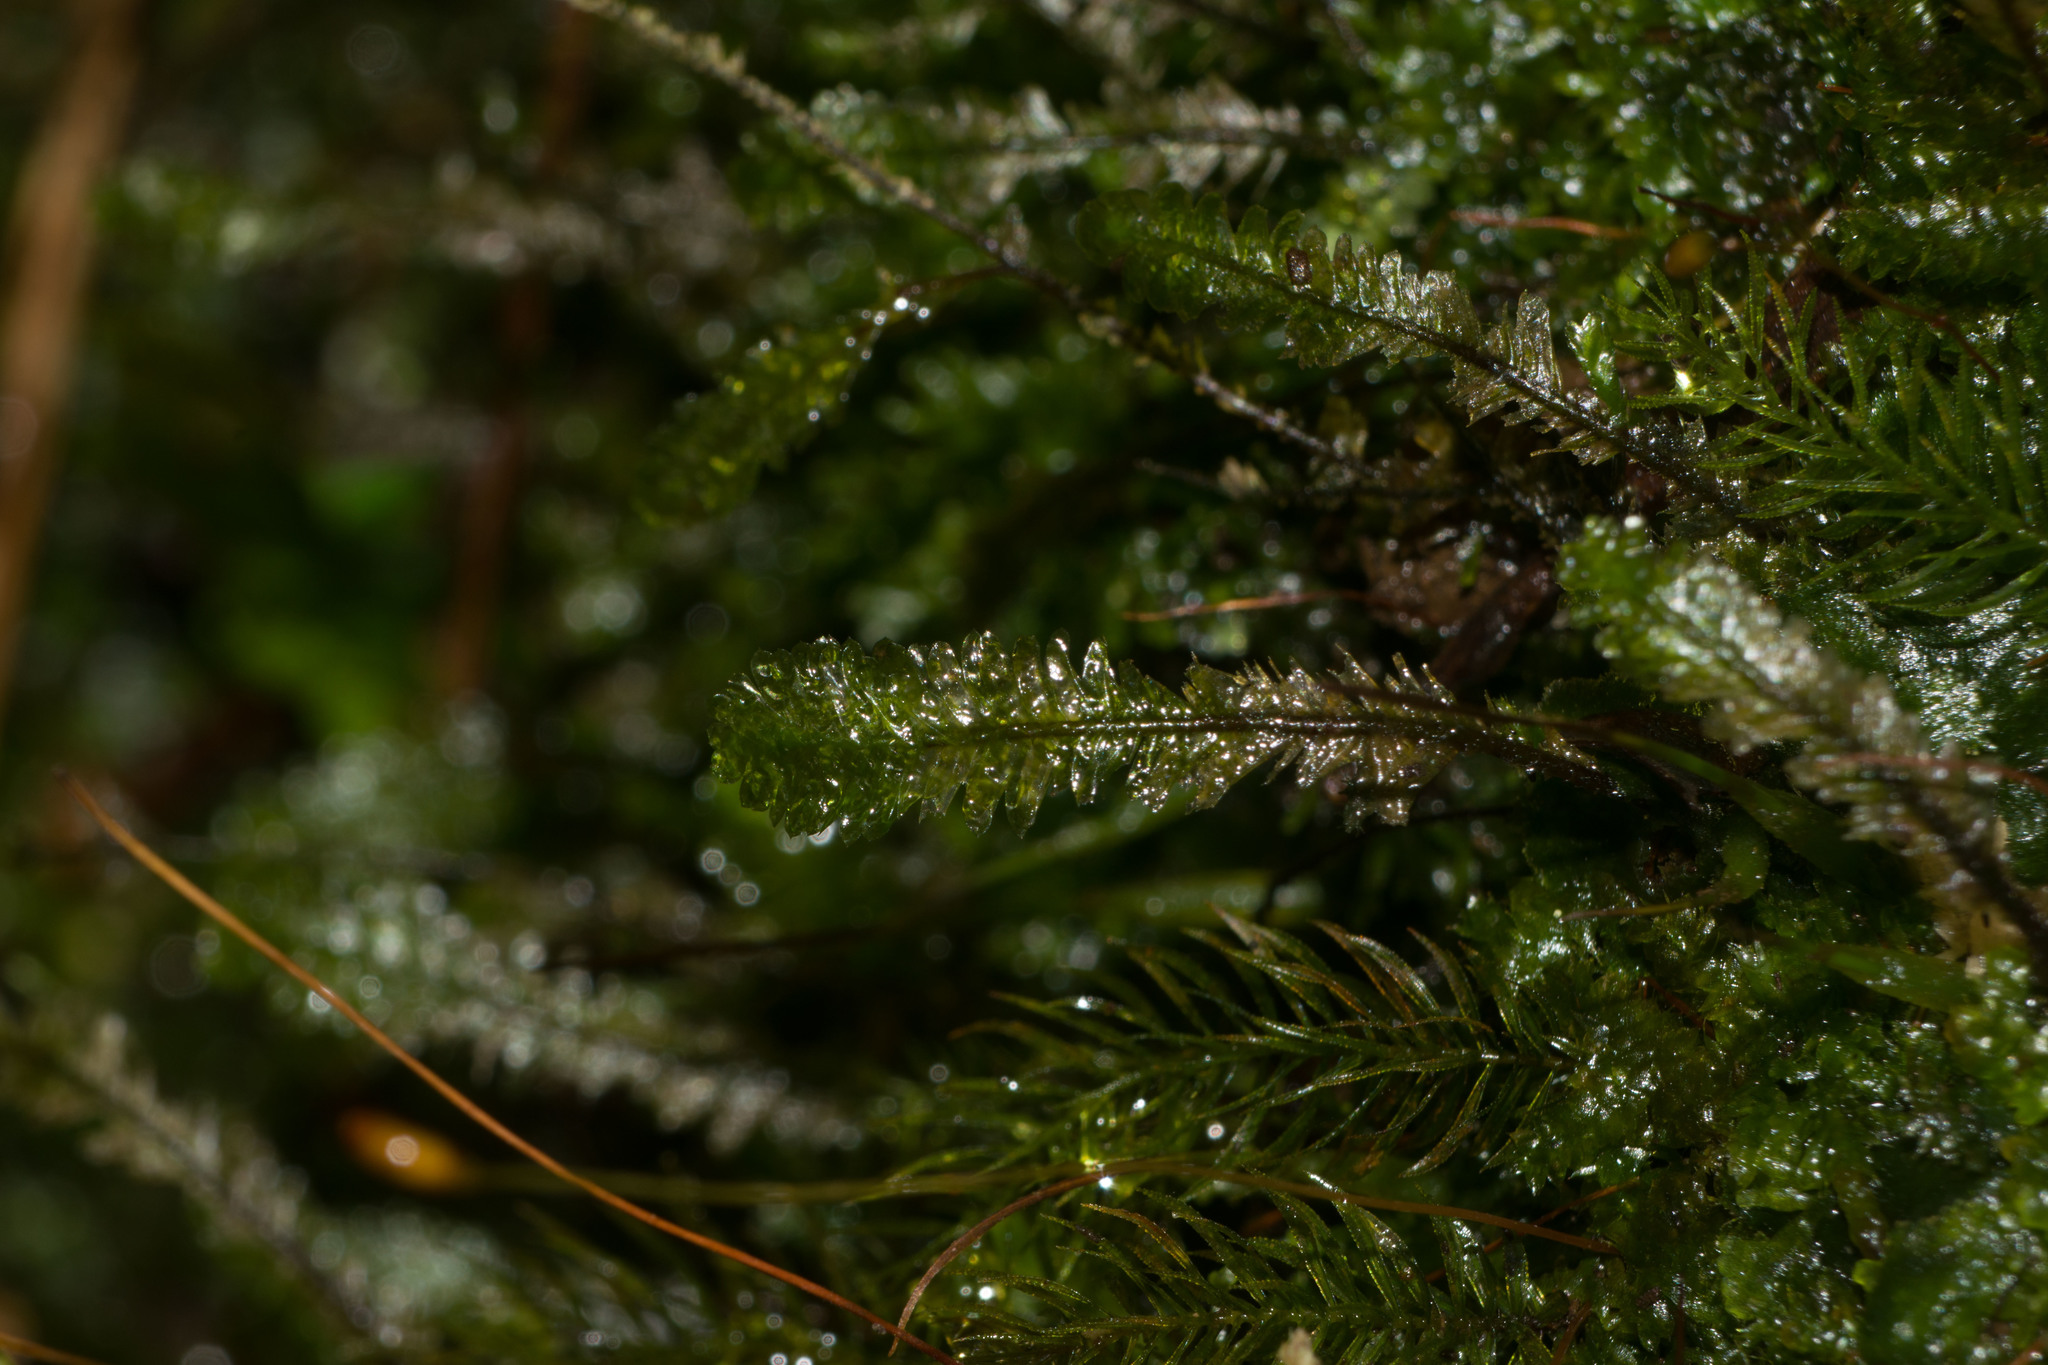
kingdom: Plantae
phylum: Bryophyta
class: Bryopsida
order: Hypnales
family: Neckeraceae
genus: Baldwiniella
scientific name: Baldwiniella kealeensis
